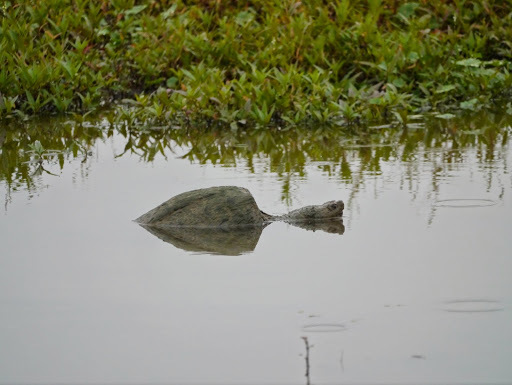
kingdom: Animalia
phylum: Chordata
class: Testudines
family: Chelydridae
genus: Chelydra
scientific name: Chelydra serpentina
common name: Common snapping turtle
